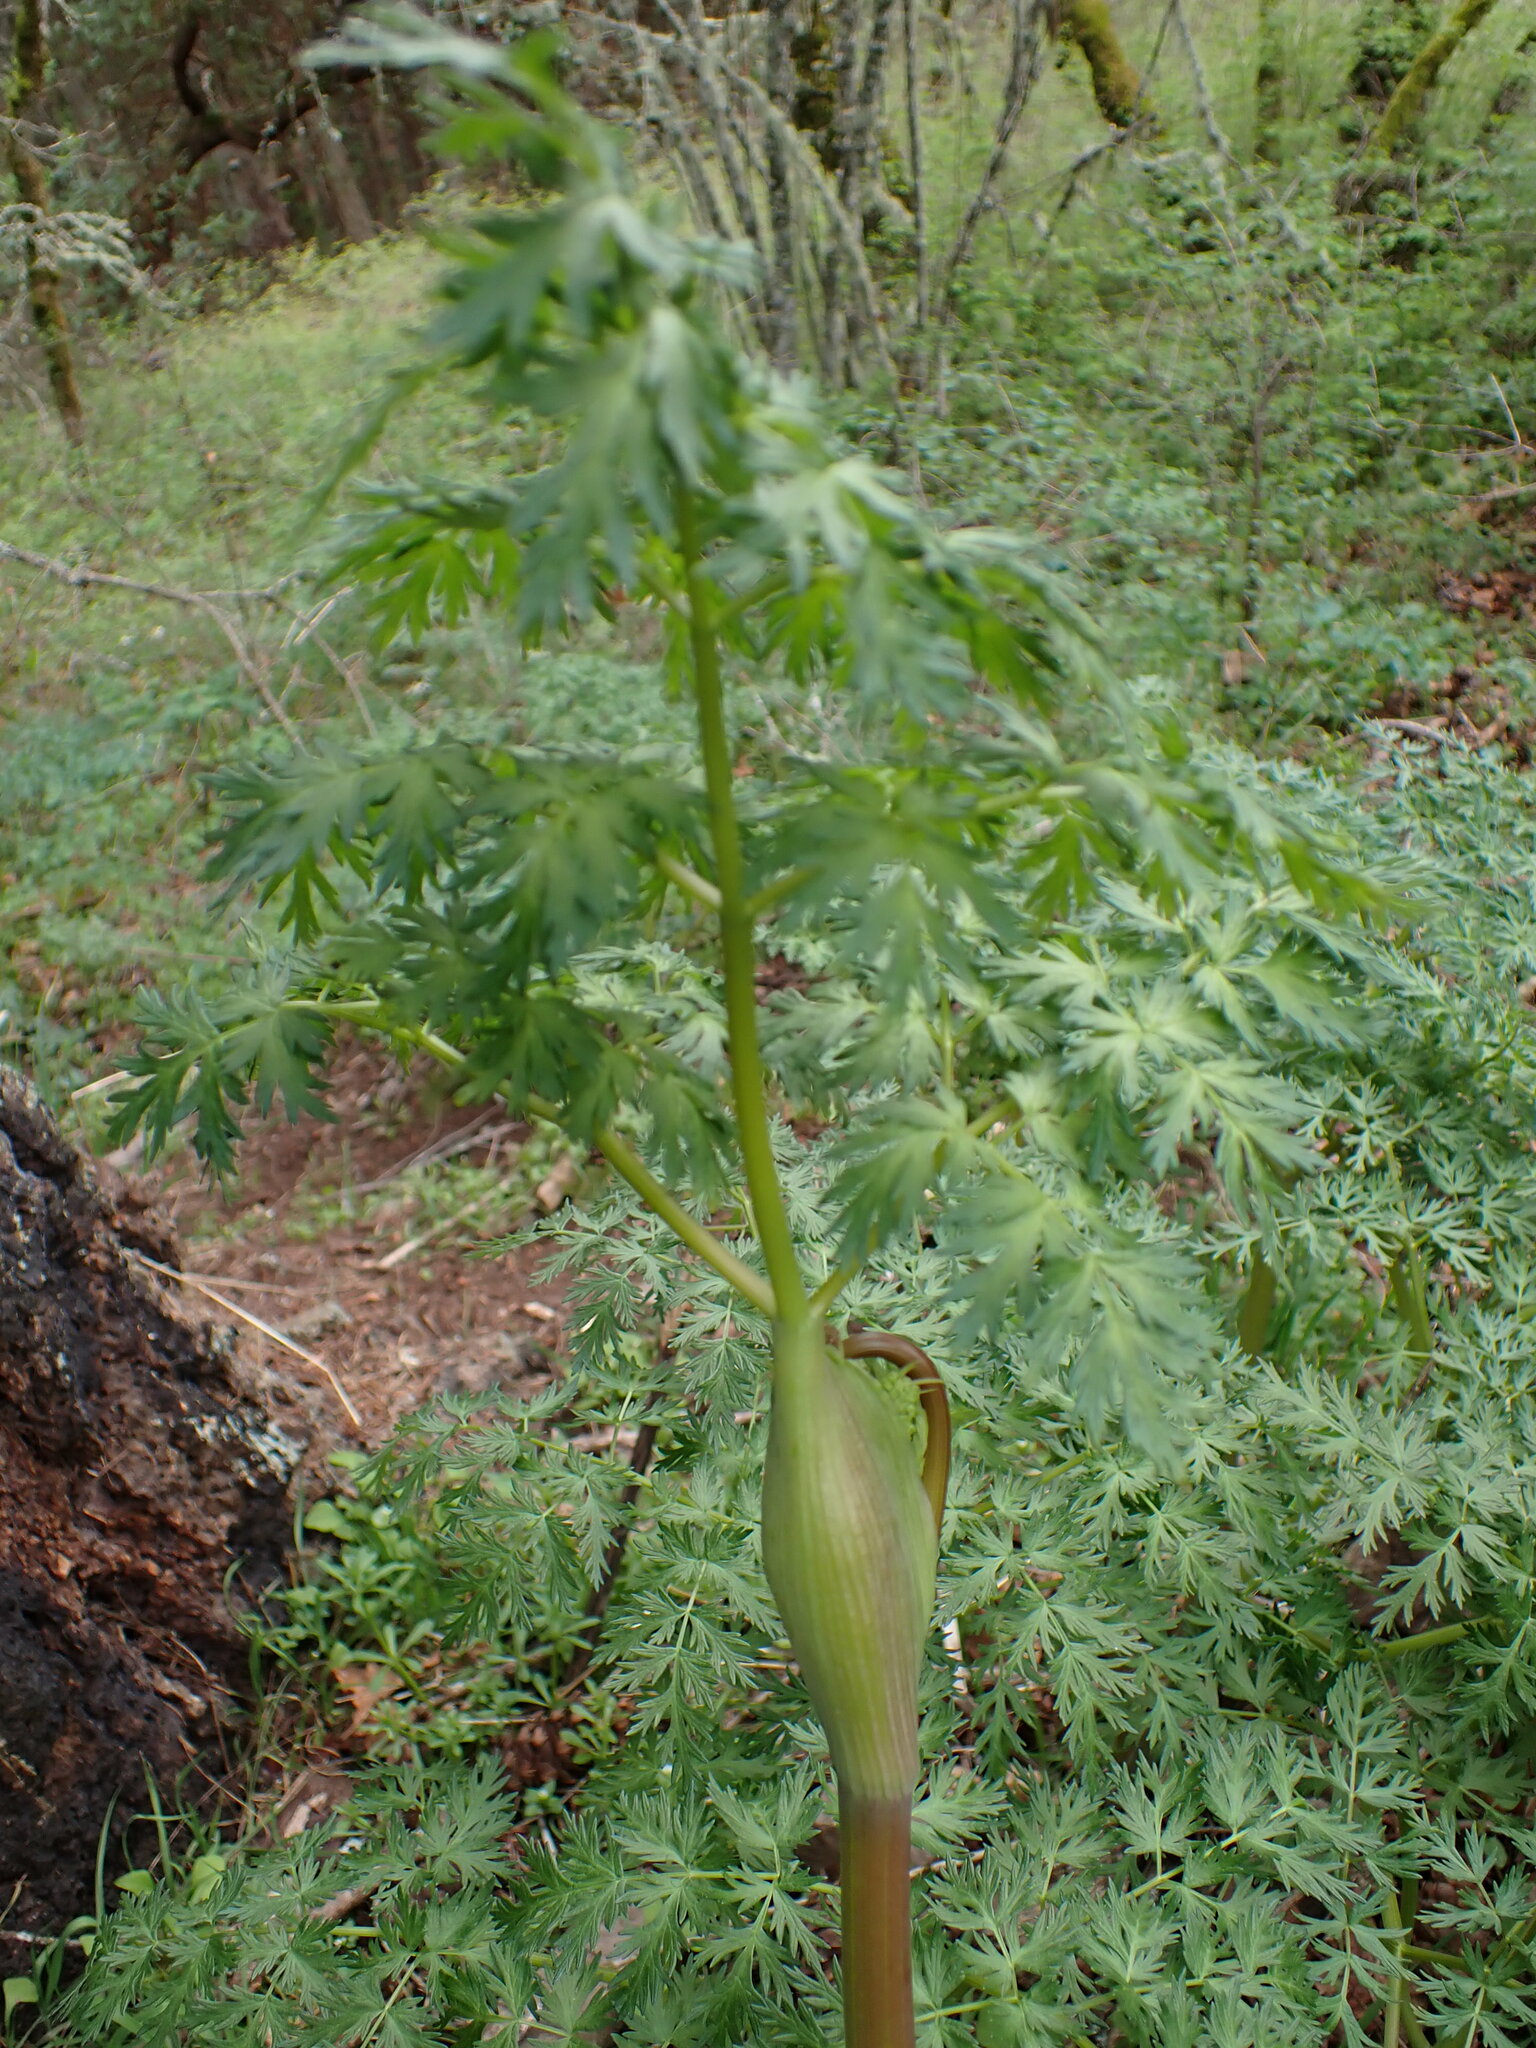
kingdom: Plantae
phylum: Tracheophyta
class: Magnoliopsida
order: Apiales
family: Apiaceae
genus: Lomatium
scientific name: Lomatium dissectum
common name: Lomatium
